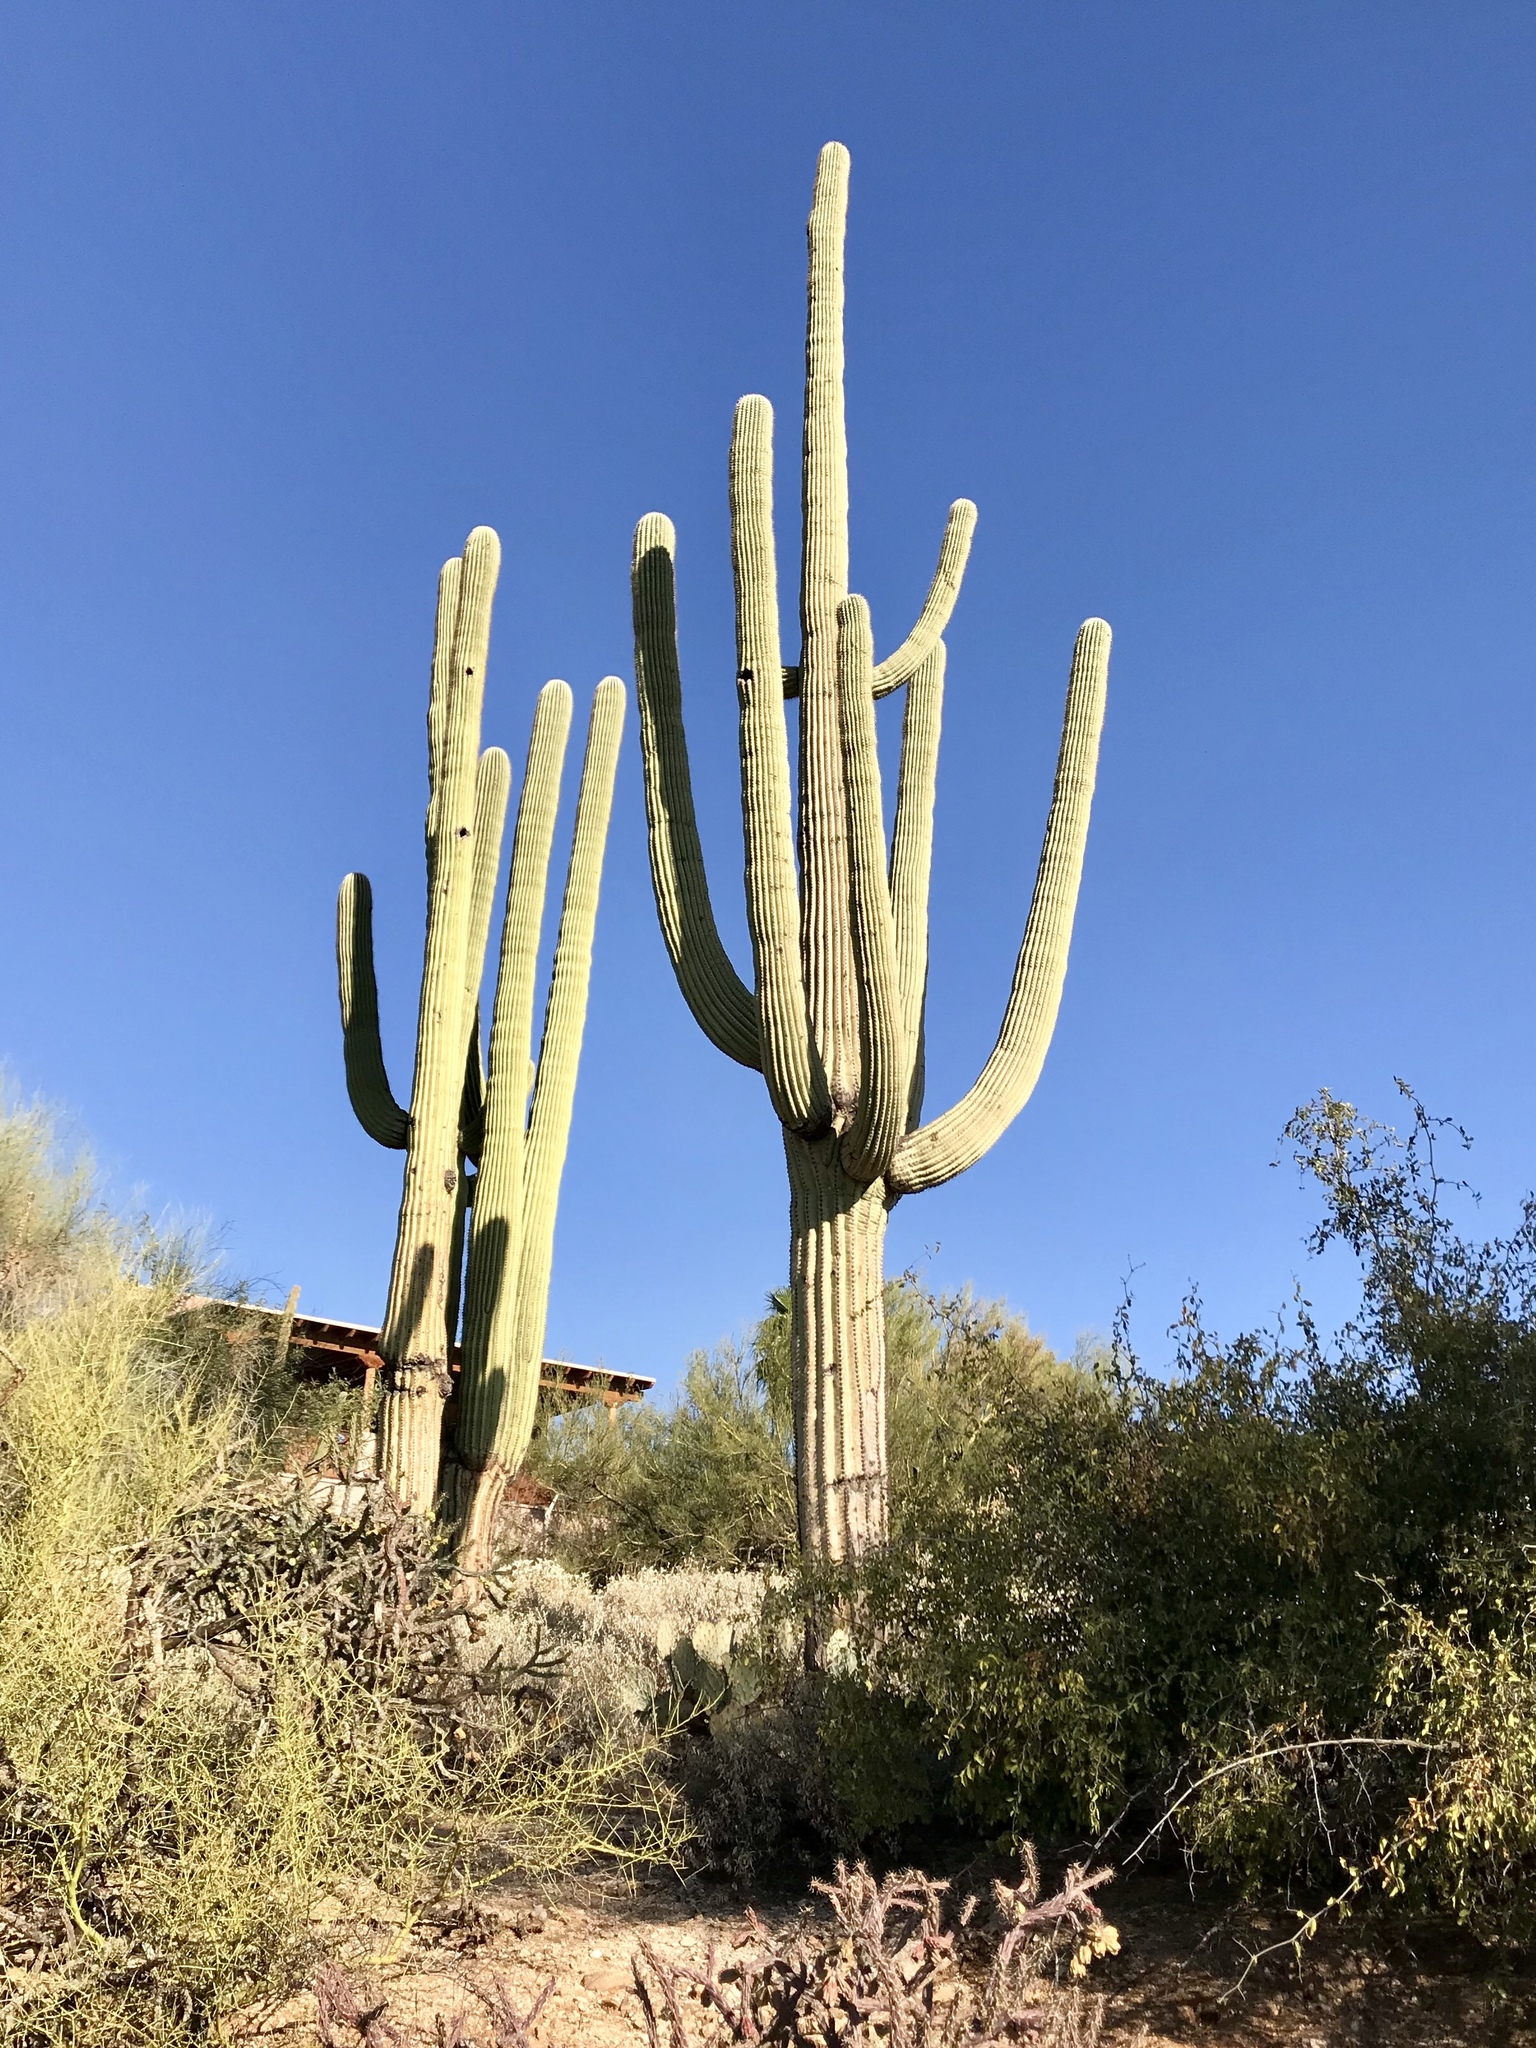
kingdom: Plantae
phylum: Tracheophyta
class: Magnoliopsida
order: Caryophyllales
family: Cactaceae
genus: Carnegiea
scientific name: Carnegiea gigantea
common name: Saguaro
